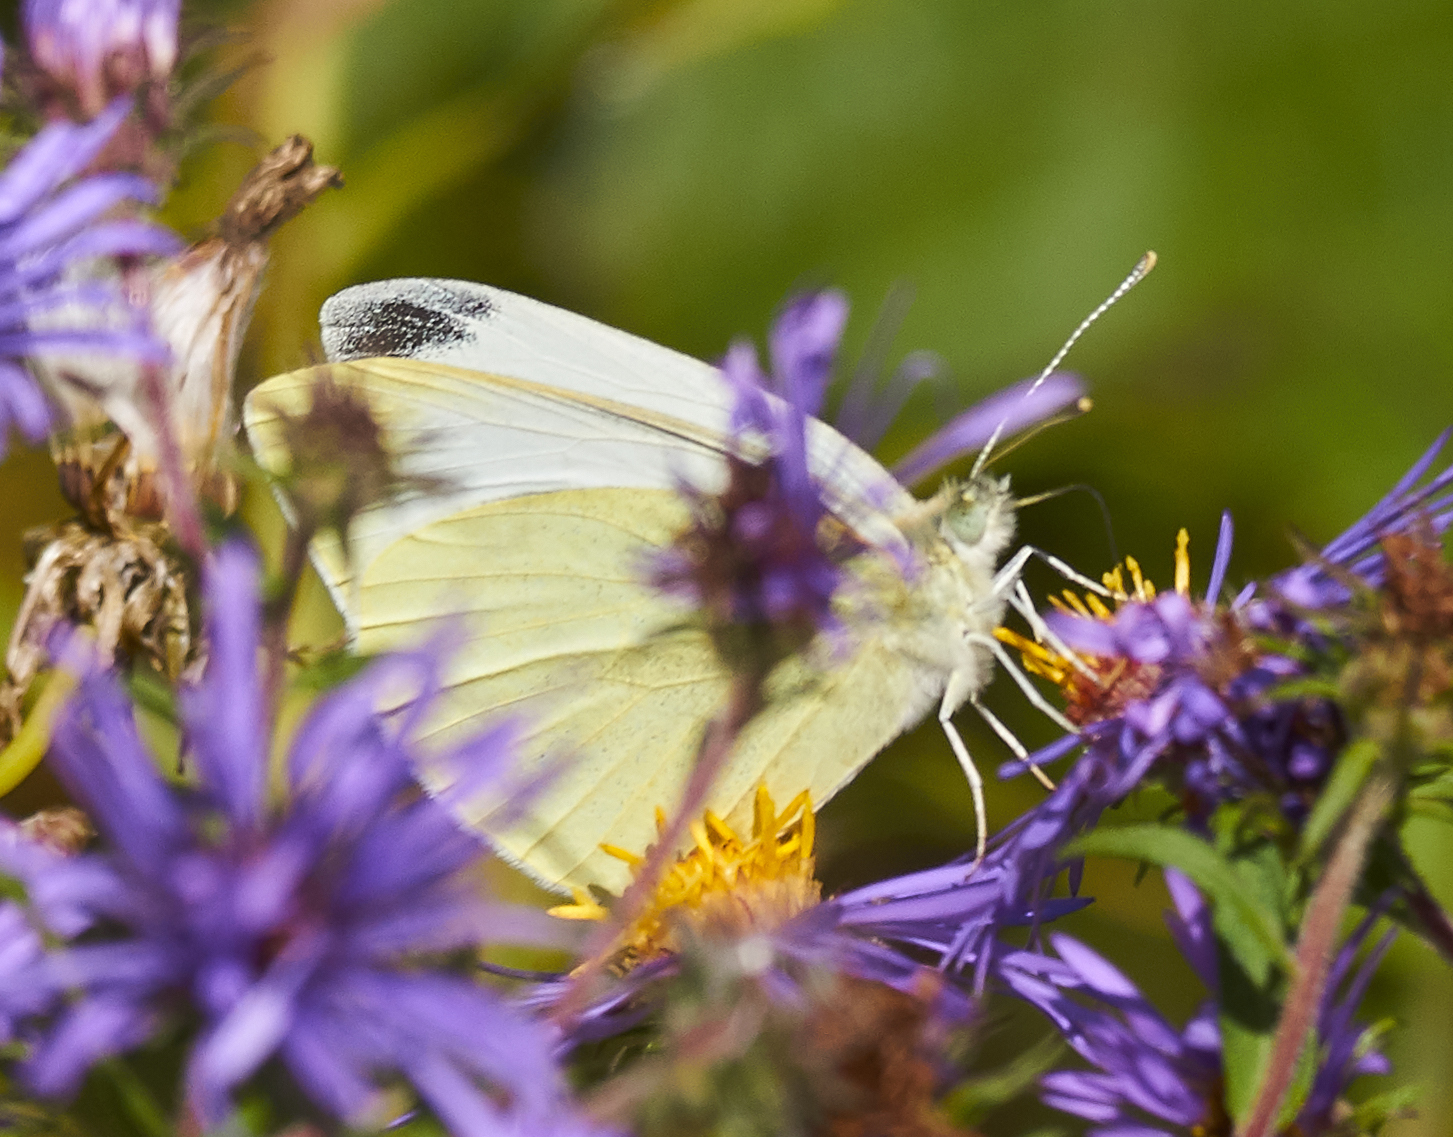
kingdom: Animalia
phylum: Arthropoda
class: Insecta
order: Lepidoptera
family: Pieridae
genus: Pieris
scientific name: Pieris rapae
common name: Small white
